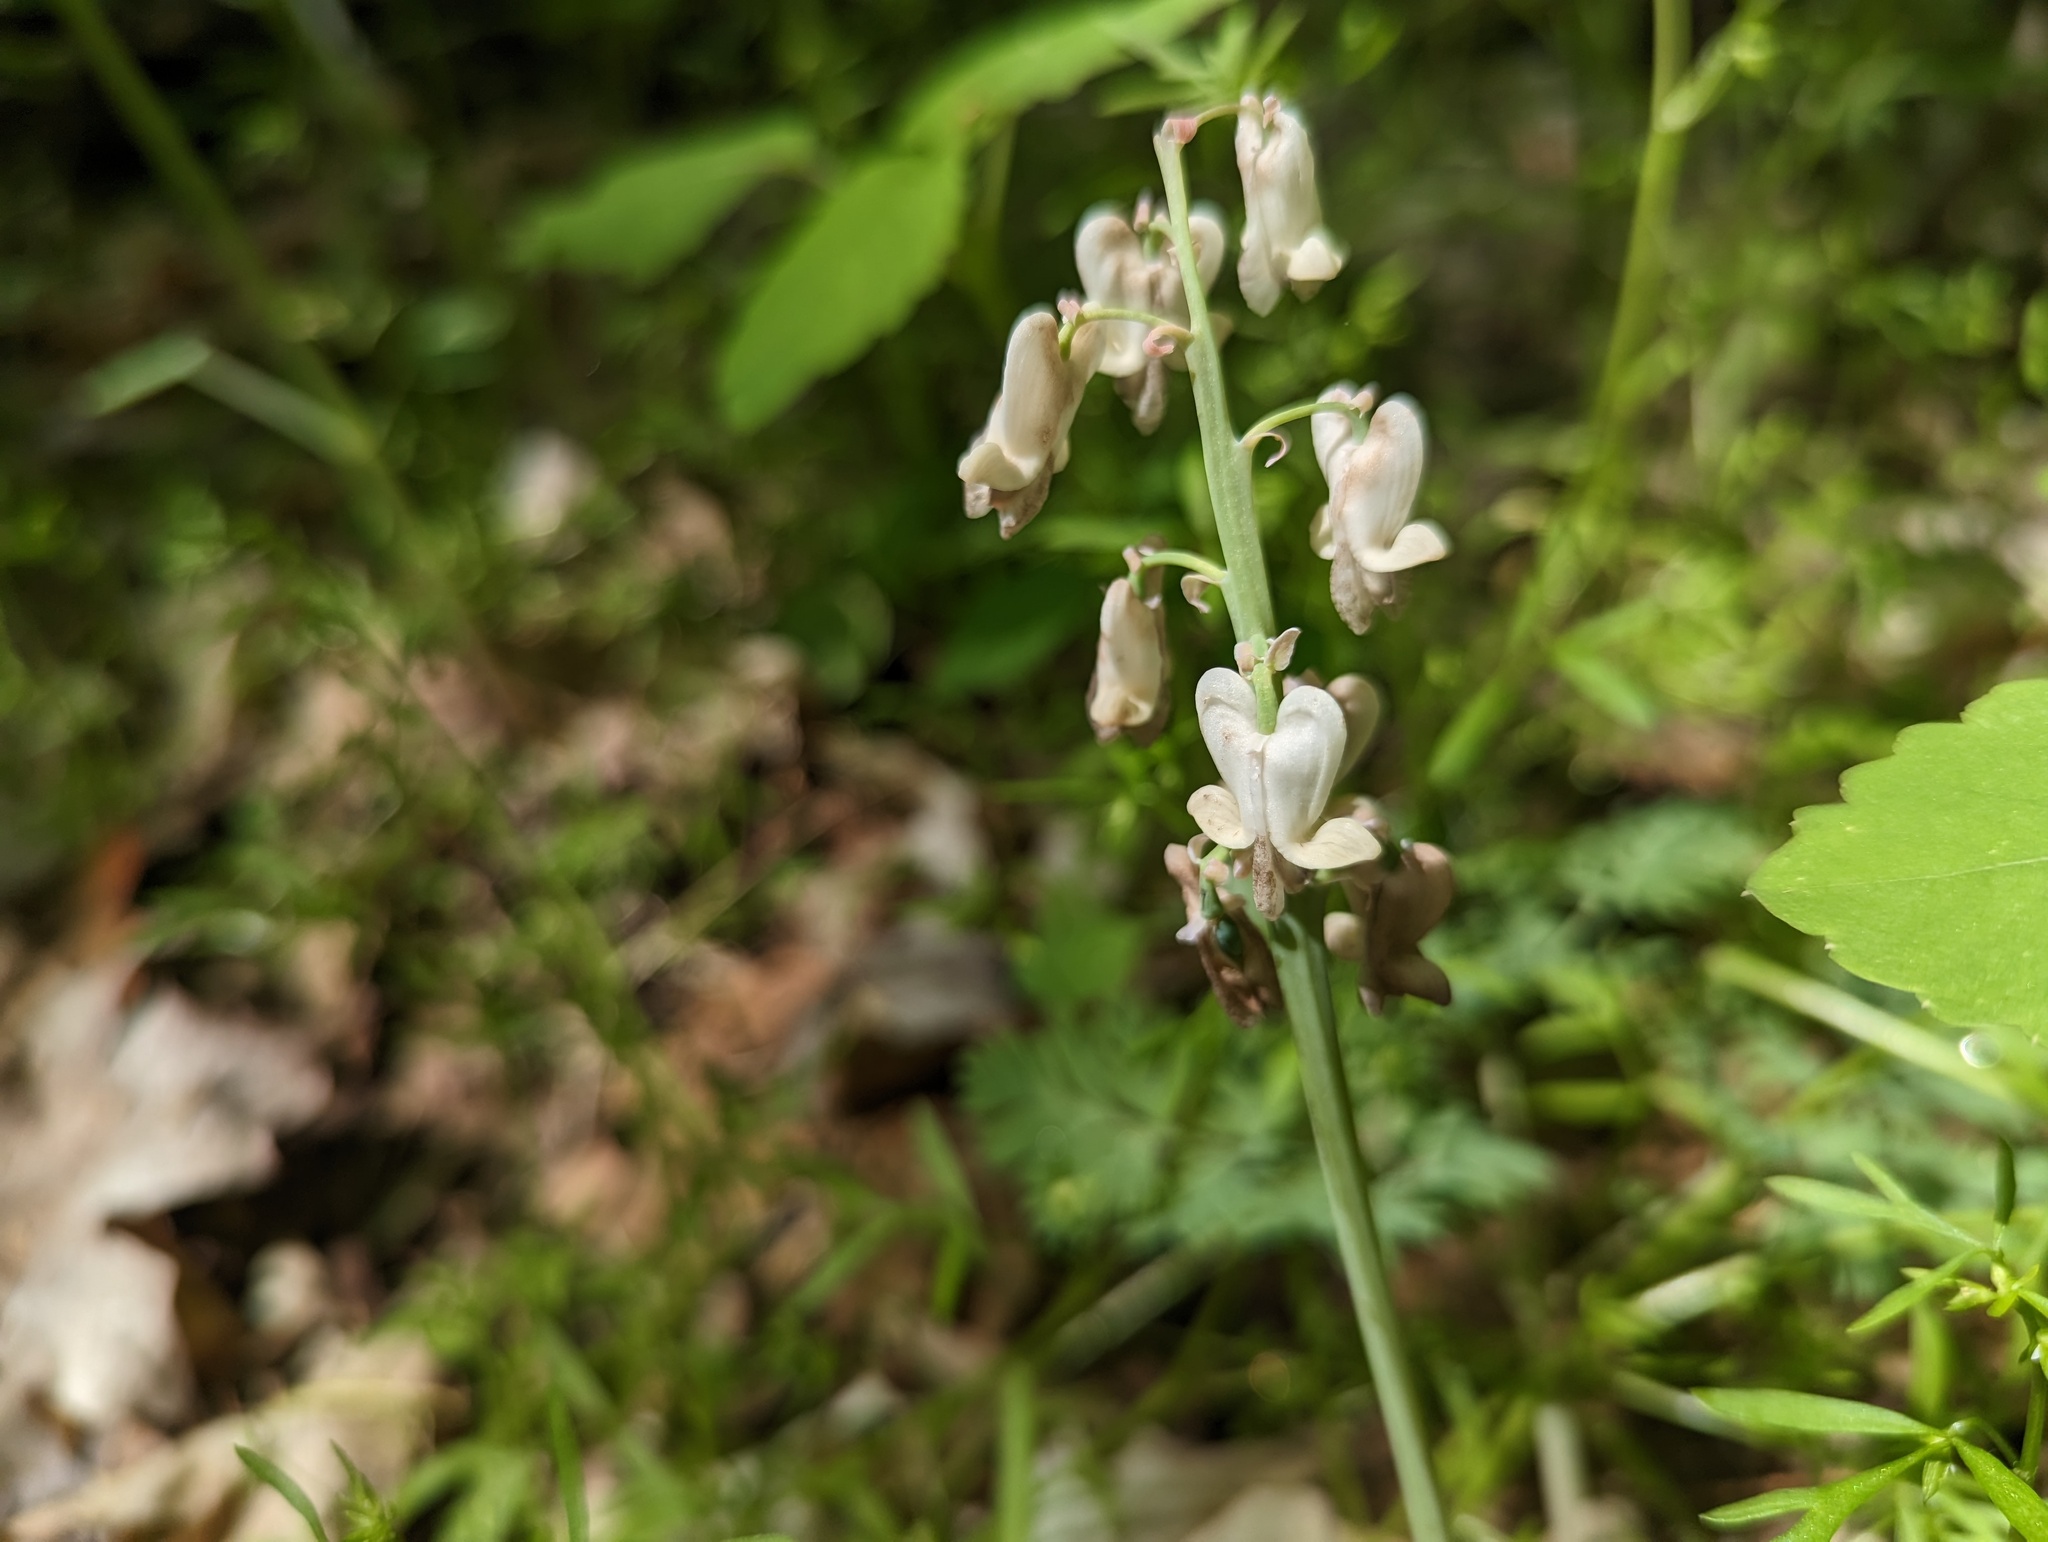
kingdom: Plantae
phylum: Tracheophyta
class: Magnoliopsida
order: Ranunculales
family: Papaveraceae
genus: Dicentra
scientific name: Dicentra canadensis
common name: Squirrel-corn
